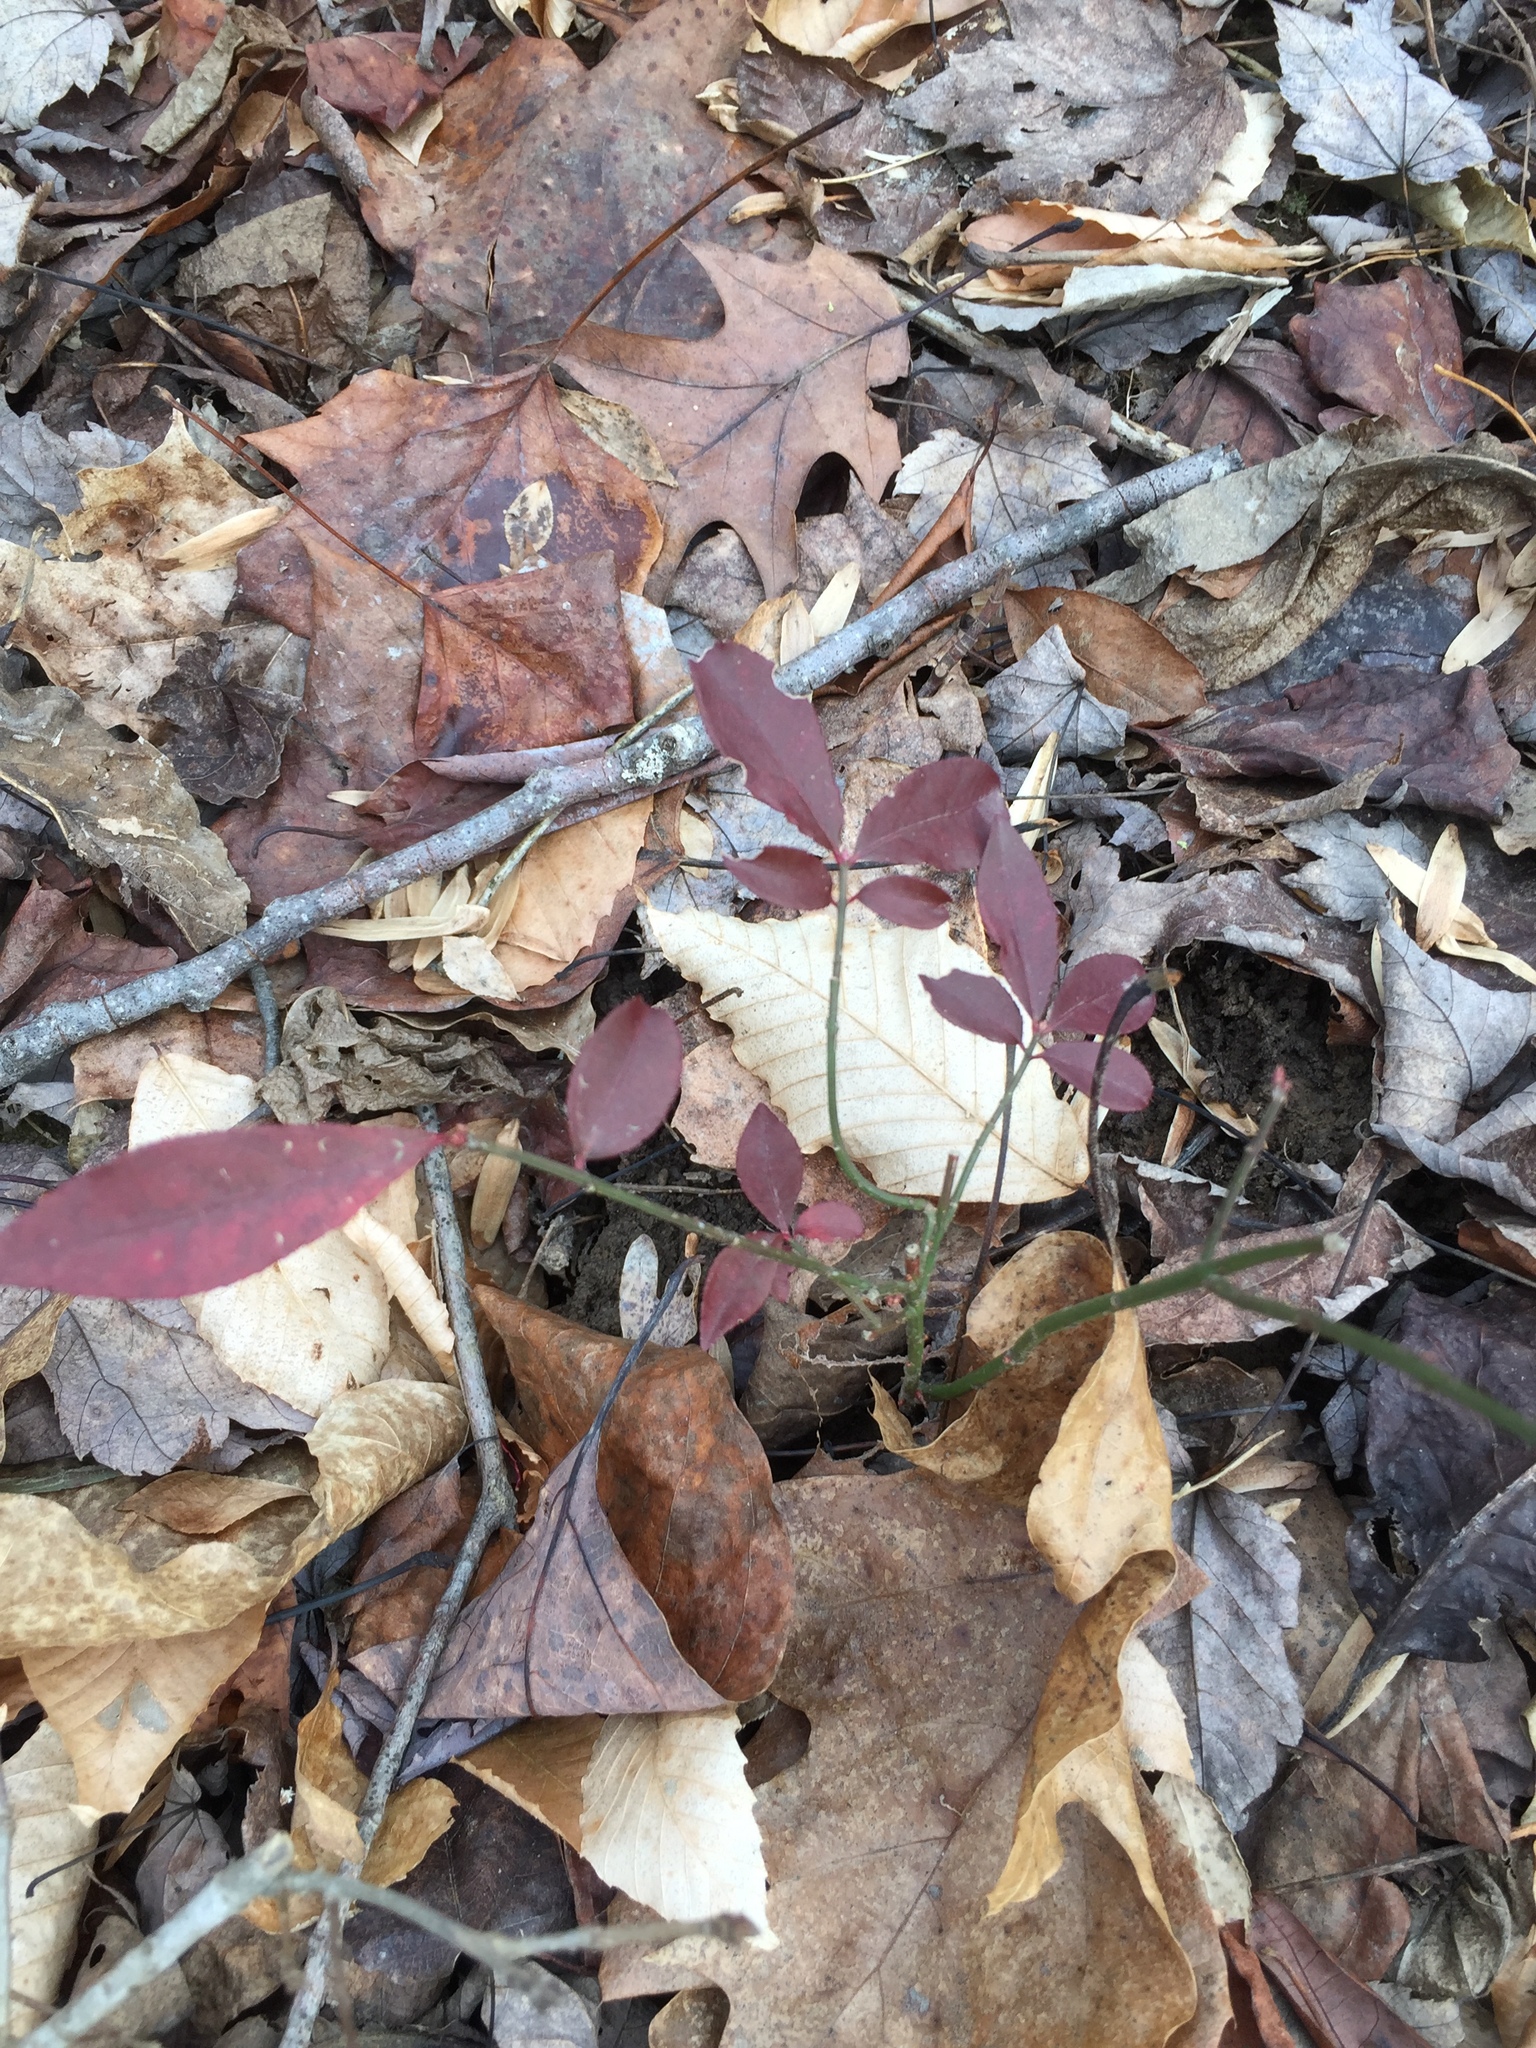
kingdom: Plantae
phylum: Tracheophyta
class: Magnoliopsida
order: Celastrales
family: Celastraceae
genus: Euonymus
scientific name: Euonymus alatus
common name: Winged euonymus
